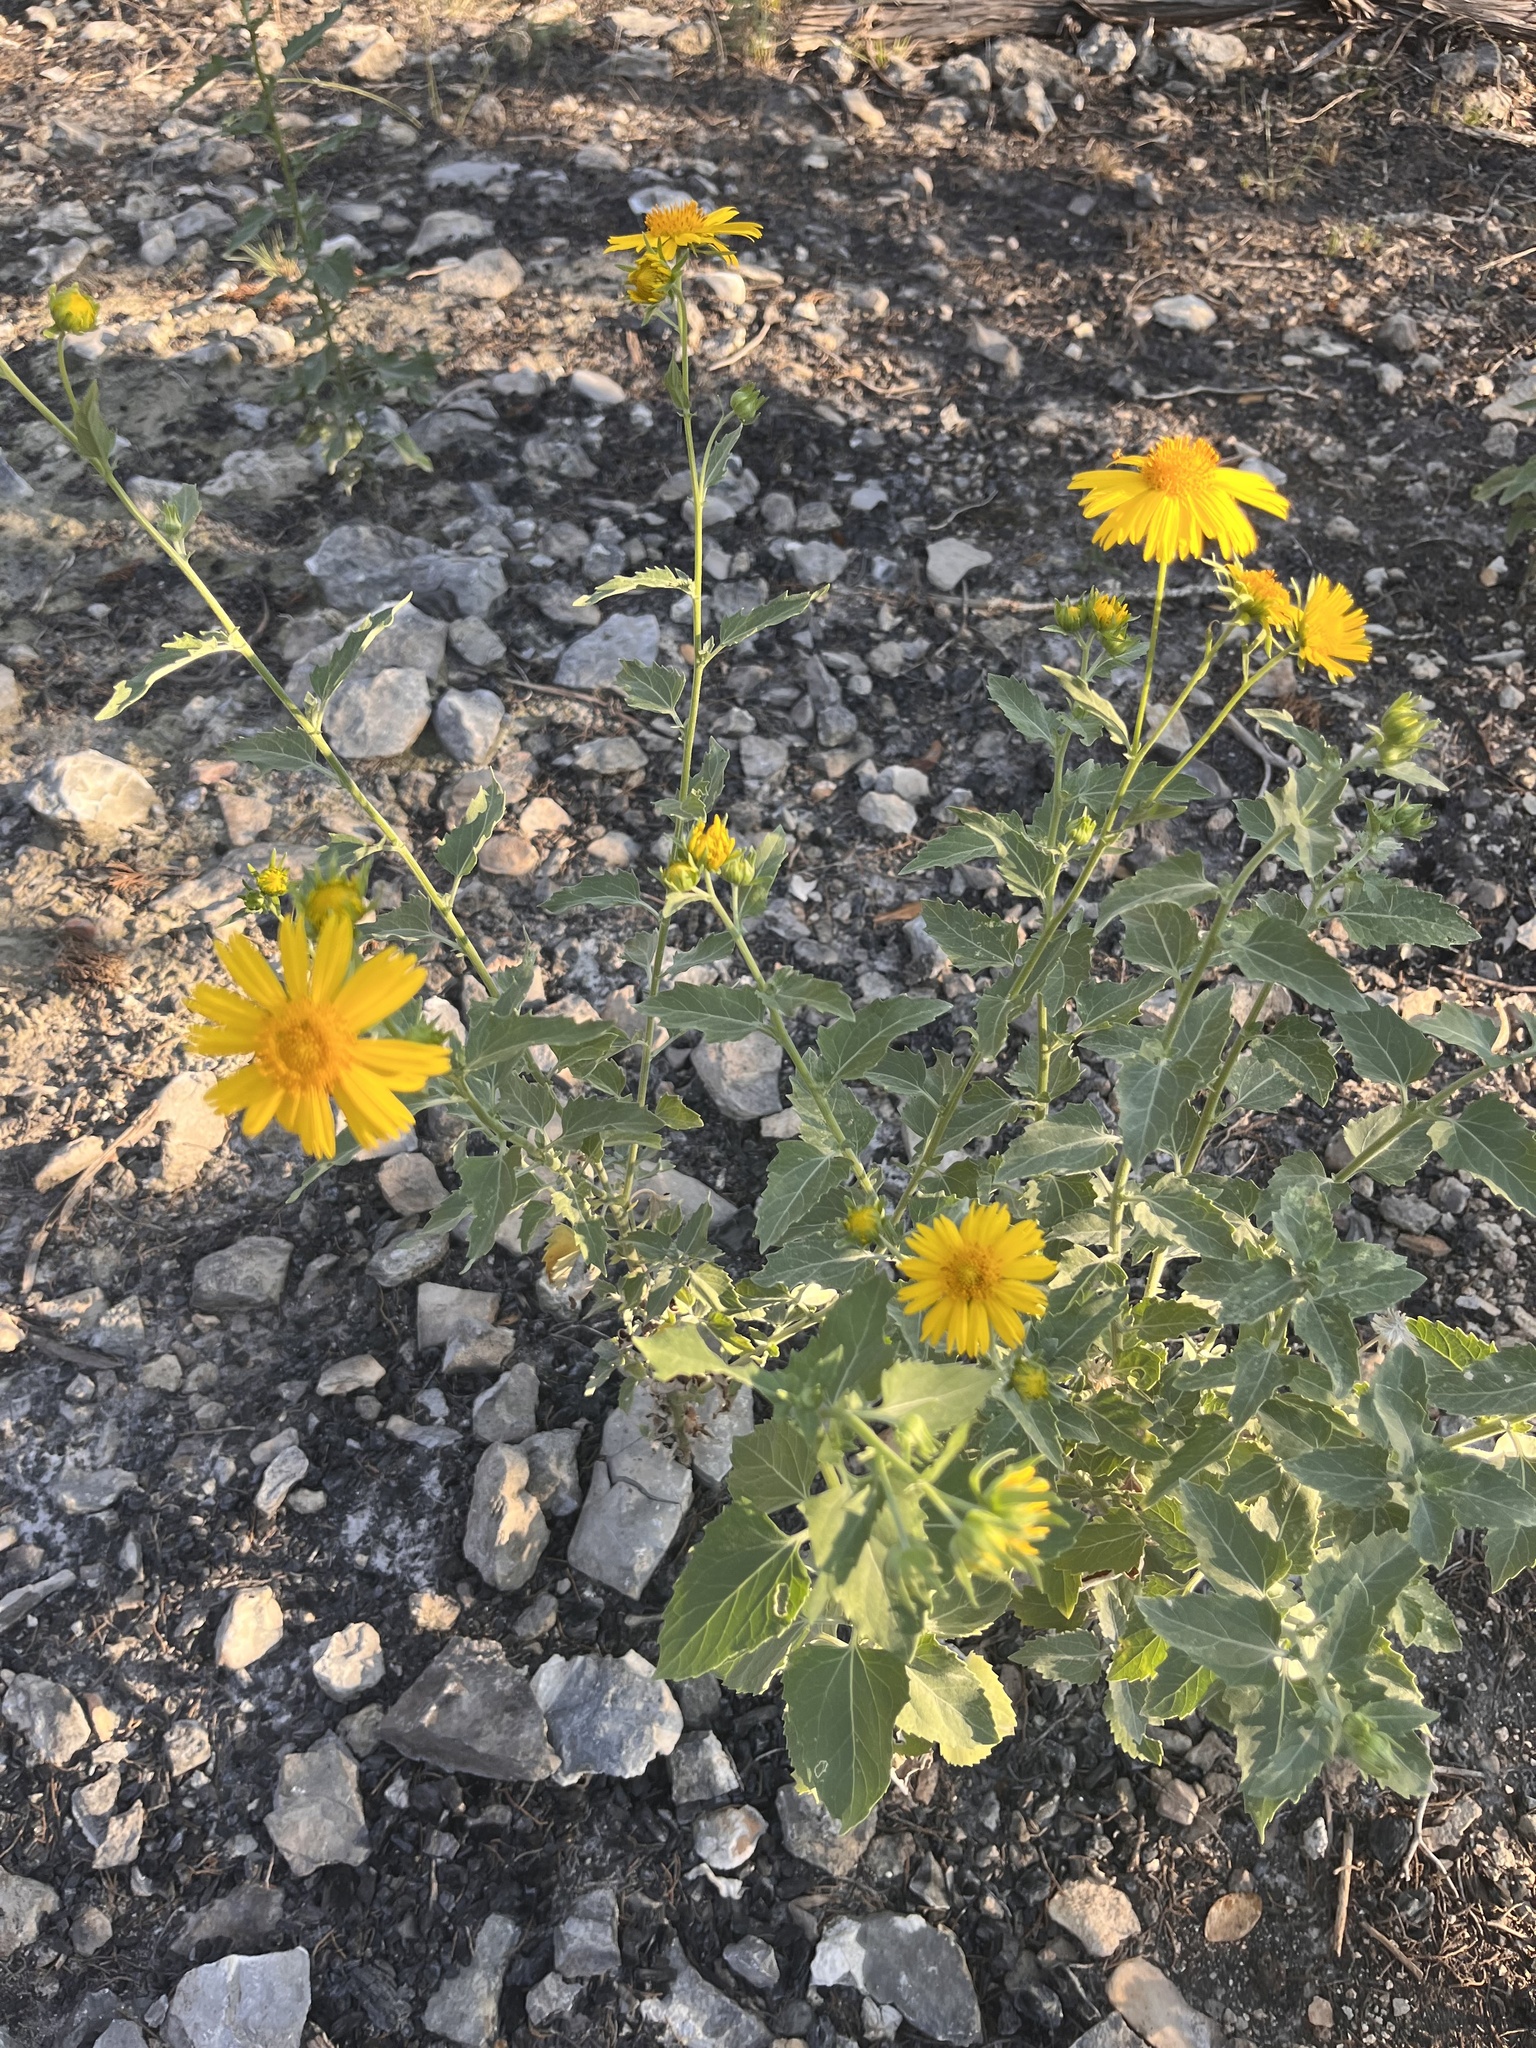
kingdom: Plantae
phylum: Tracheophyta
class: Magnoliopsida
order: Asterales
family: Asteraceae
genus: Verbesina
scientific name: Verbesina encelioides
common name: Golden crownbeard
